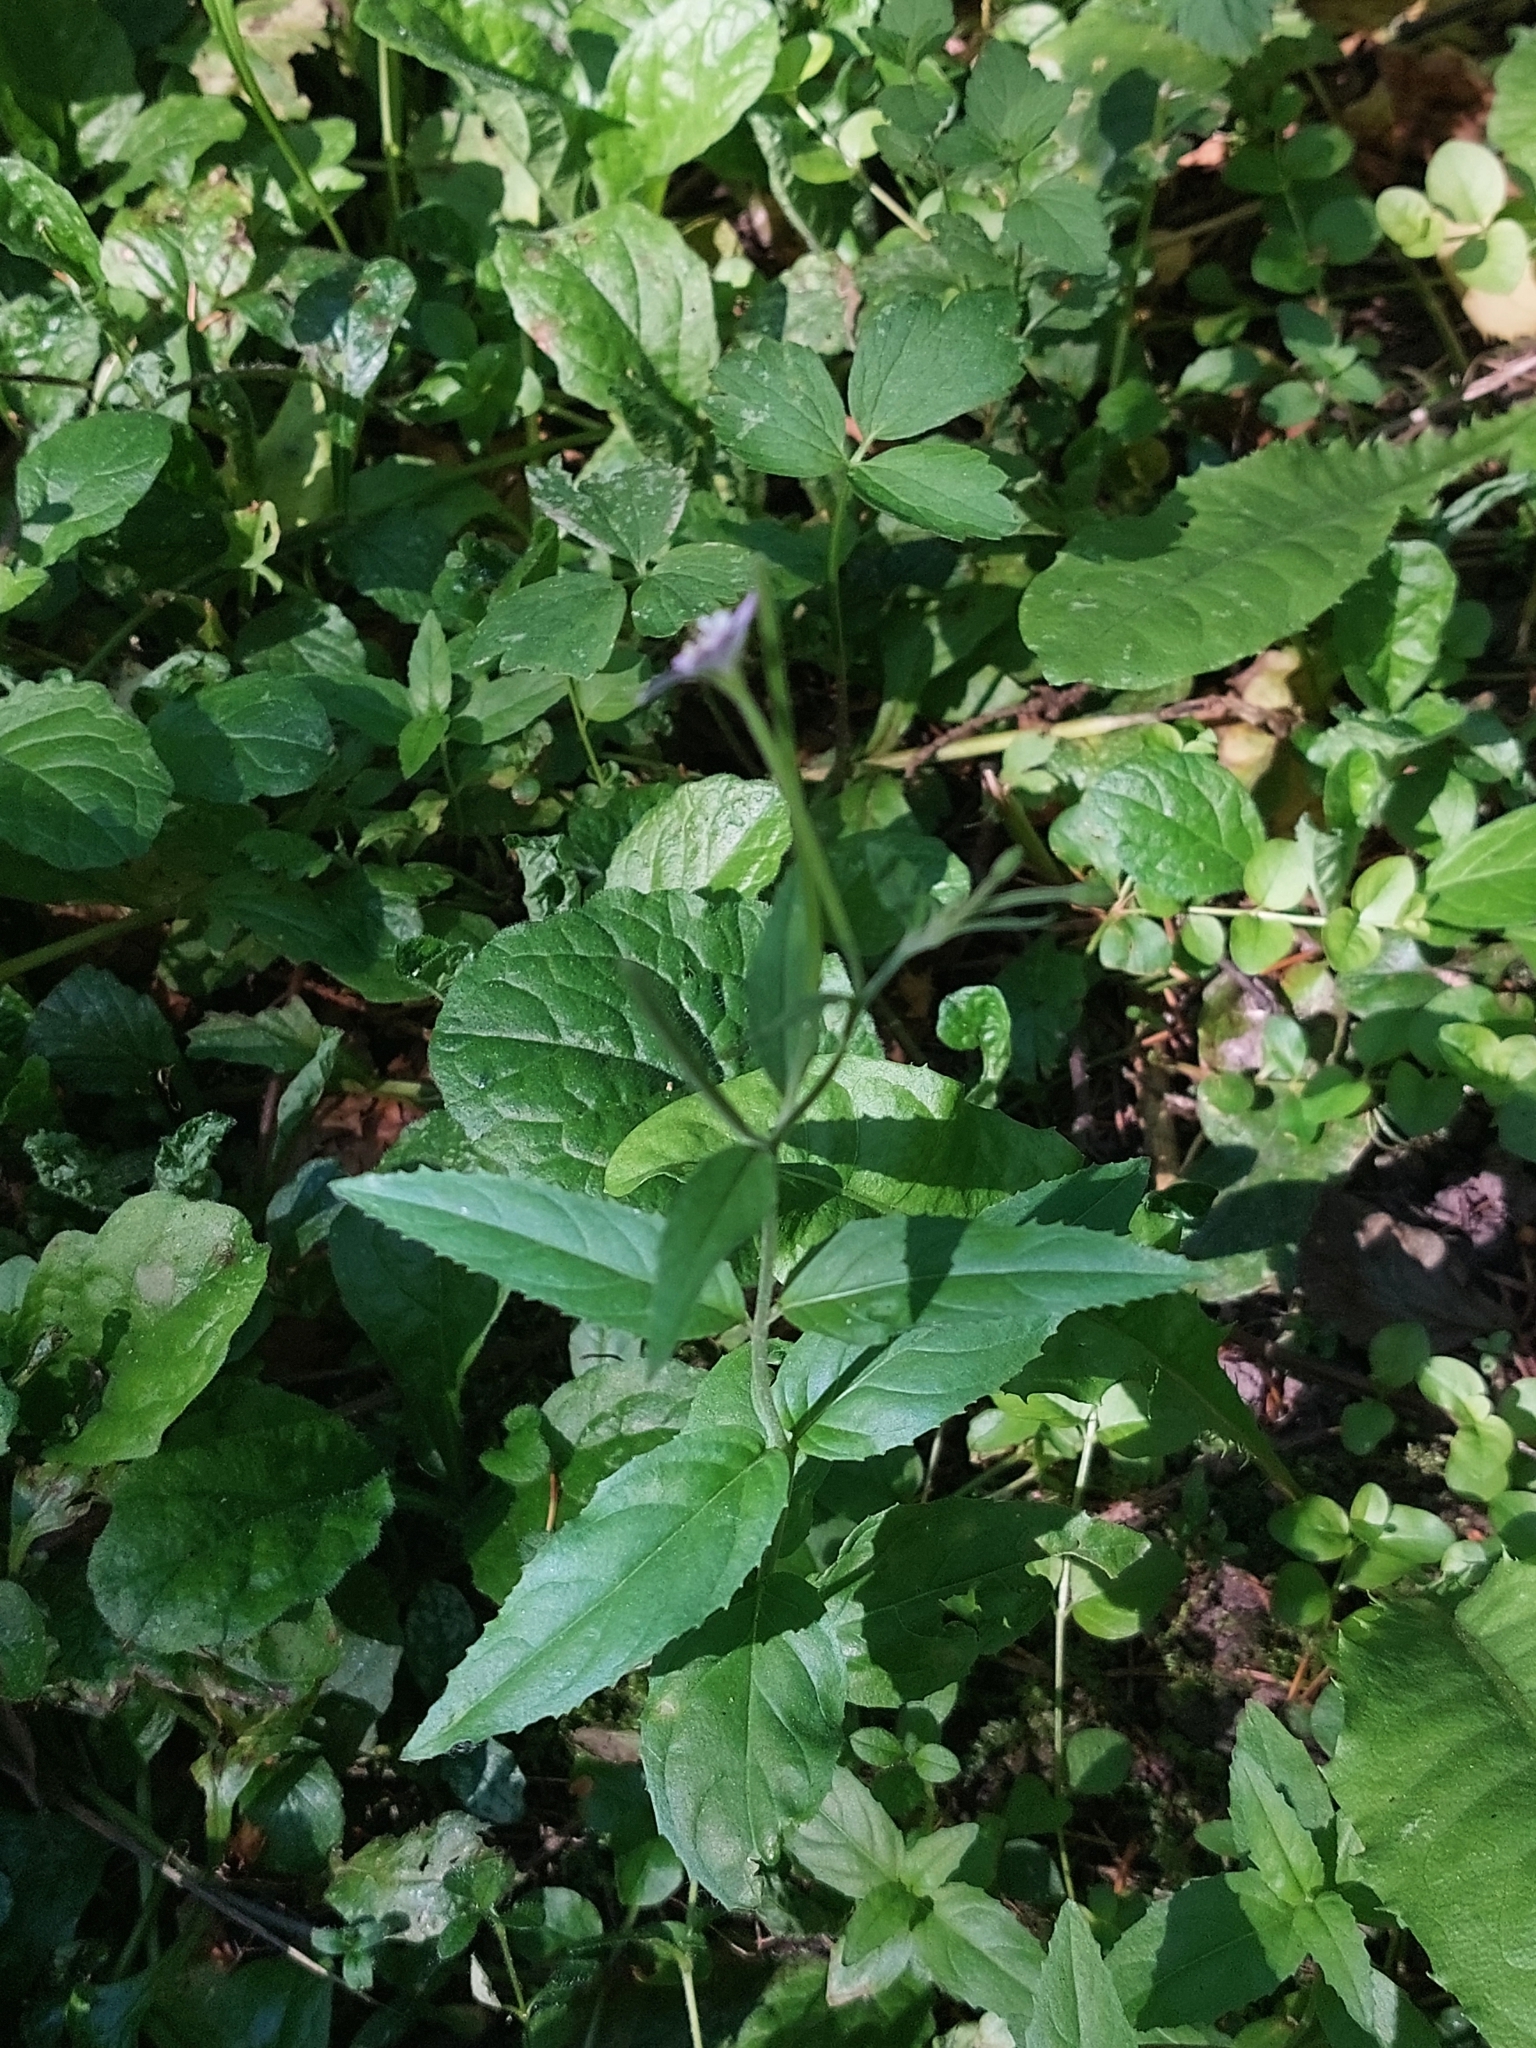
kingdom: Plantae
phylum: Tracheophyta
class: Magnoliopsida
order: Myrtales
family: Onagraceae
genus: Epilobium
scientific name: Epilobium montanum
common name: Broad-leaved willowherb
